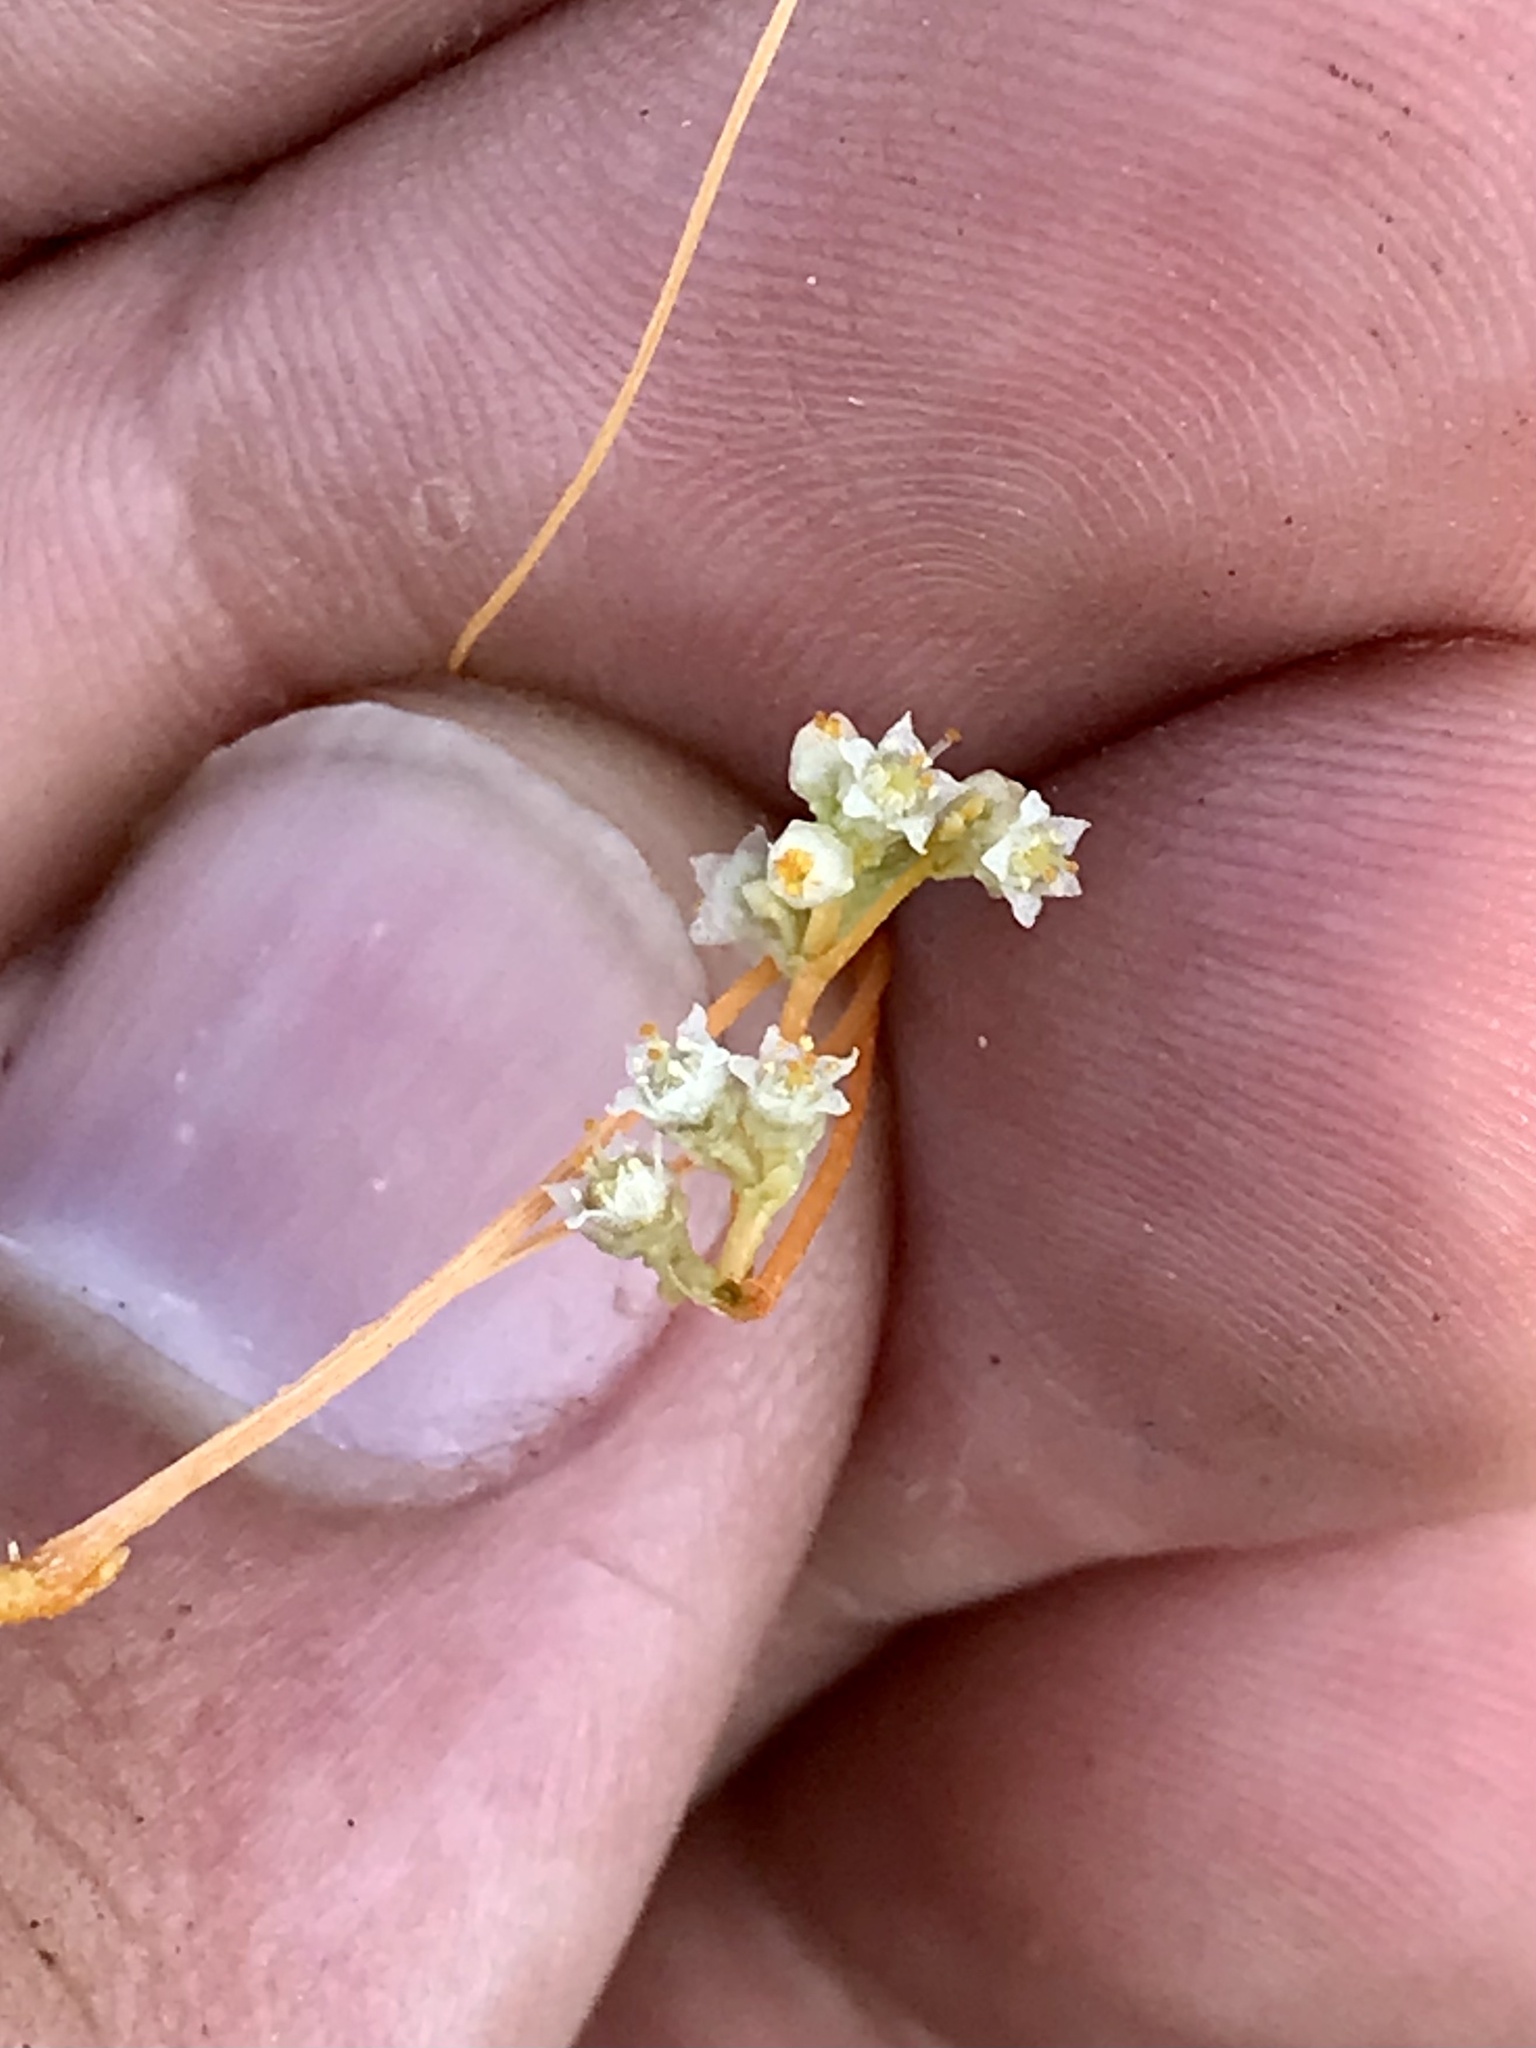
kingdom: Plantae
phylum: Tracheophyta
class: Magnoliopsida
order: Solanales
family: Convolvulaceae
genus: Cuscuta
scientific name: Cuscuta pentagona
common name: Fiveangled dodder
